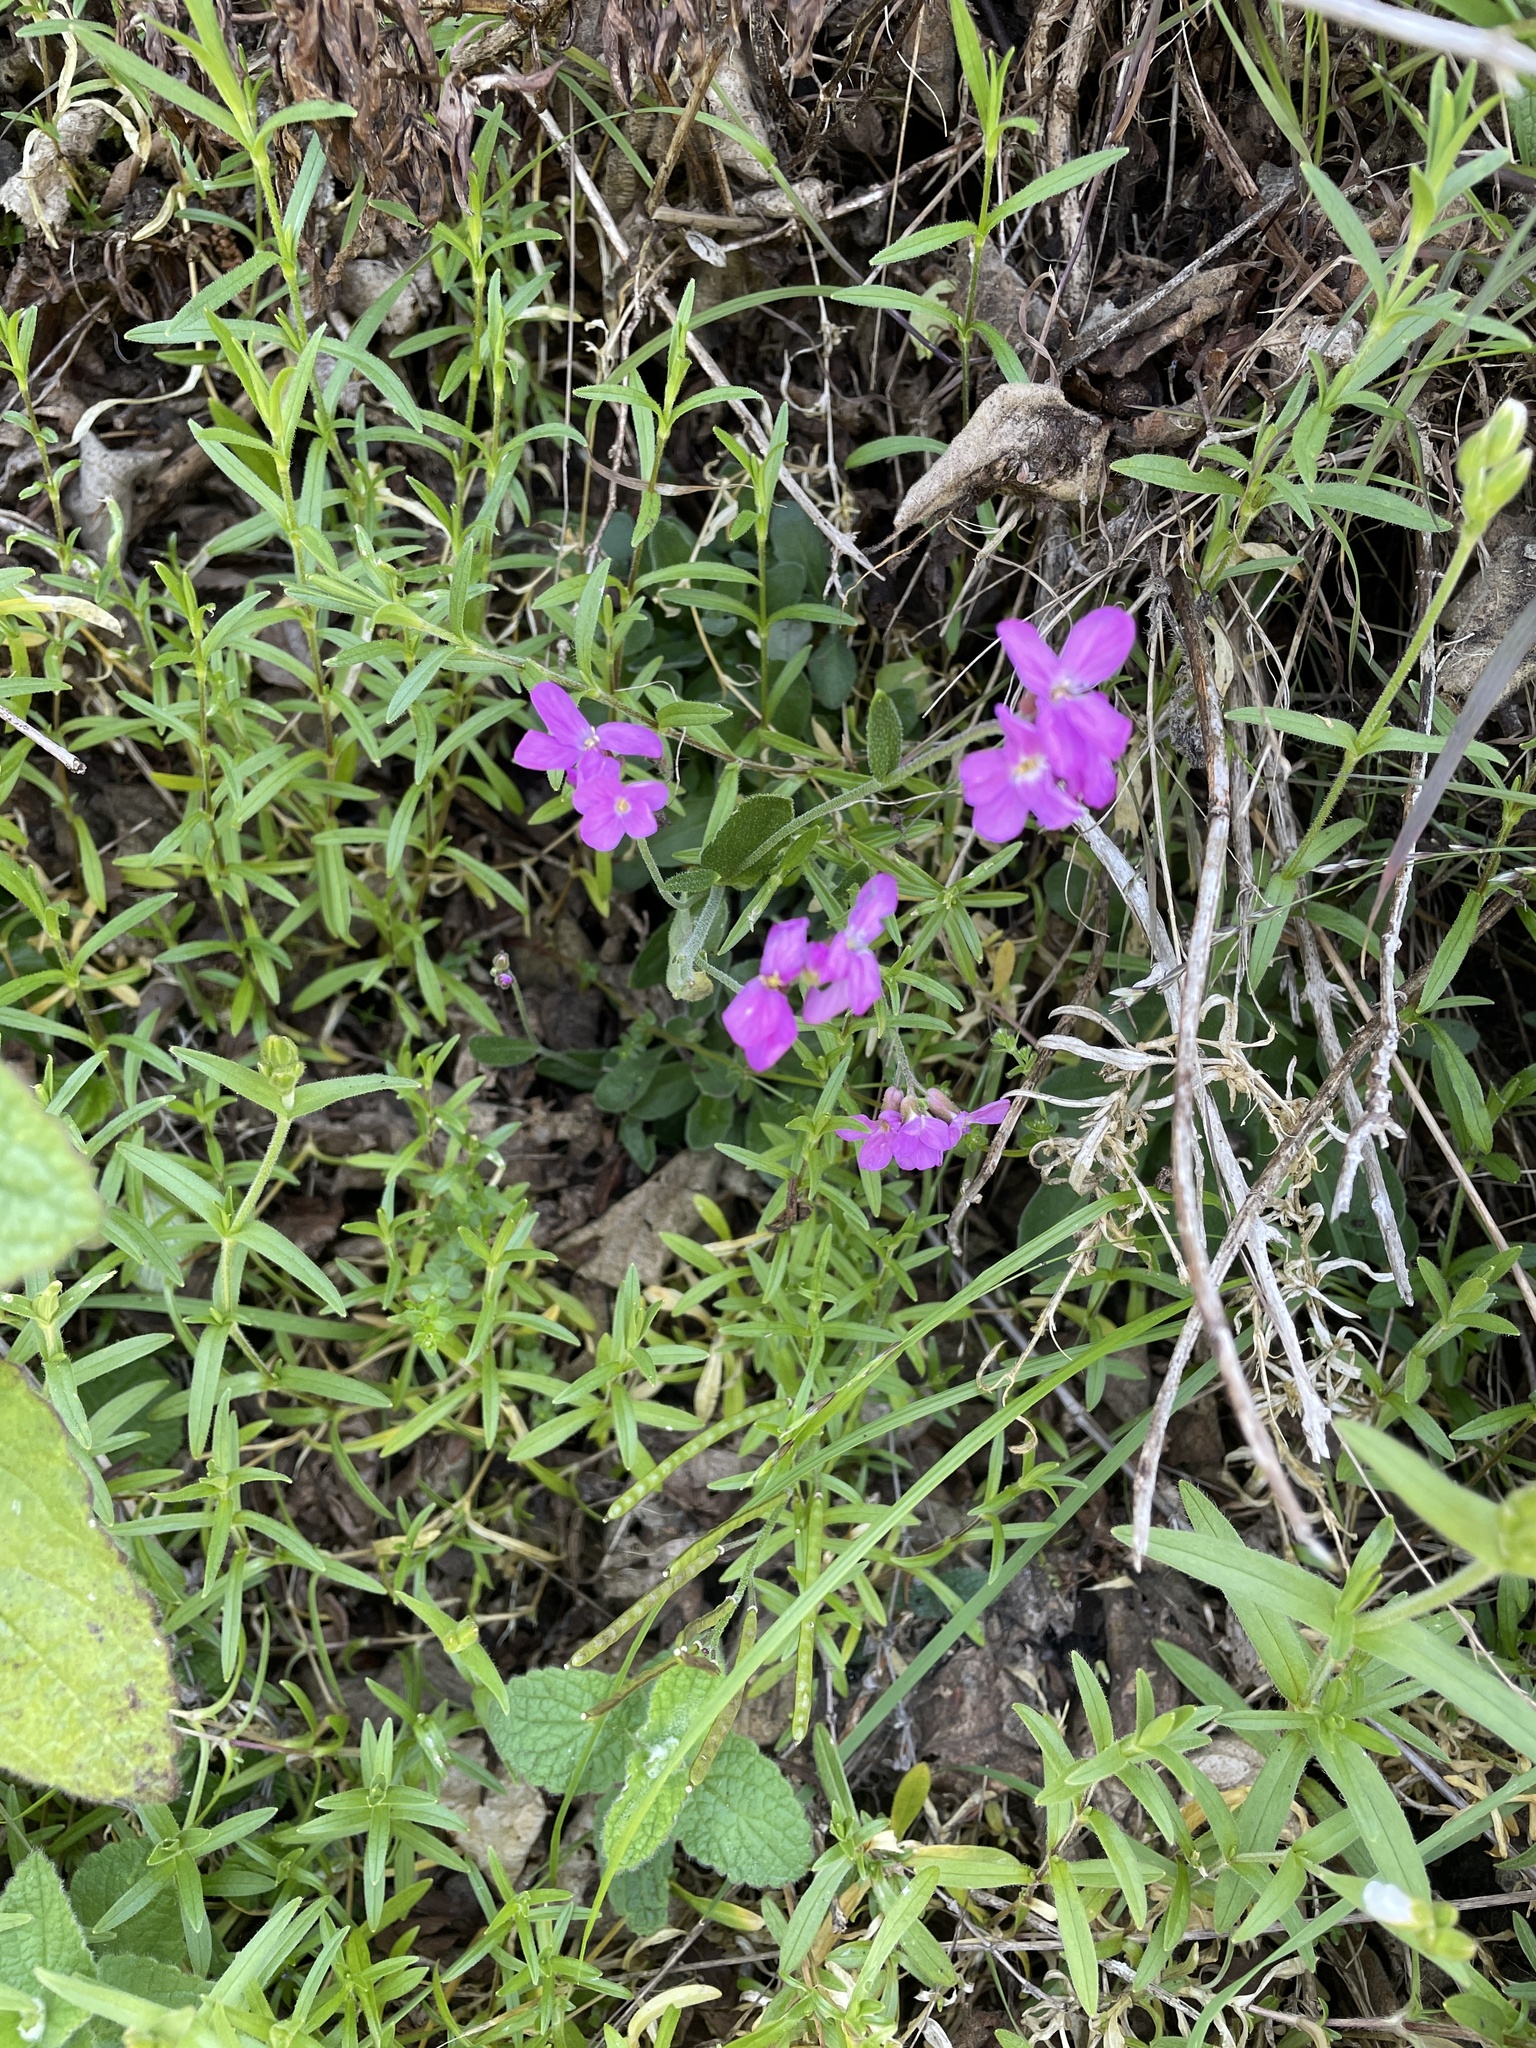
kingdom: Plantae
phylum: Tracheophyta
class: Magnoliopsida
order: Brassicales
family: Brassicaceae
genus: Arabis
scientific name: Arabis blepharophylla
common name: Rose rockcress
